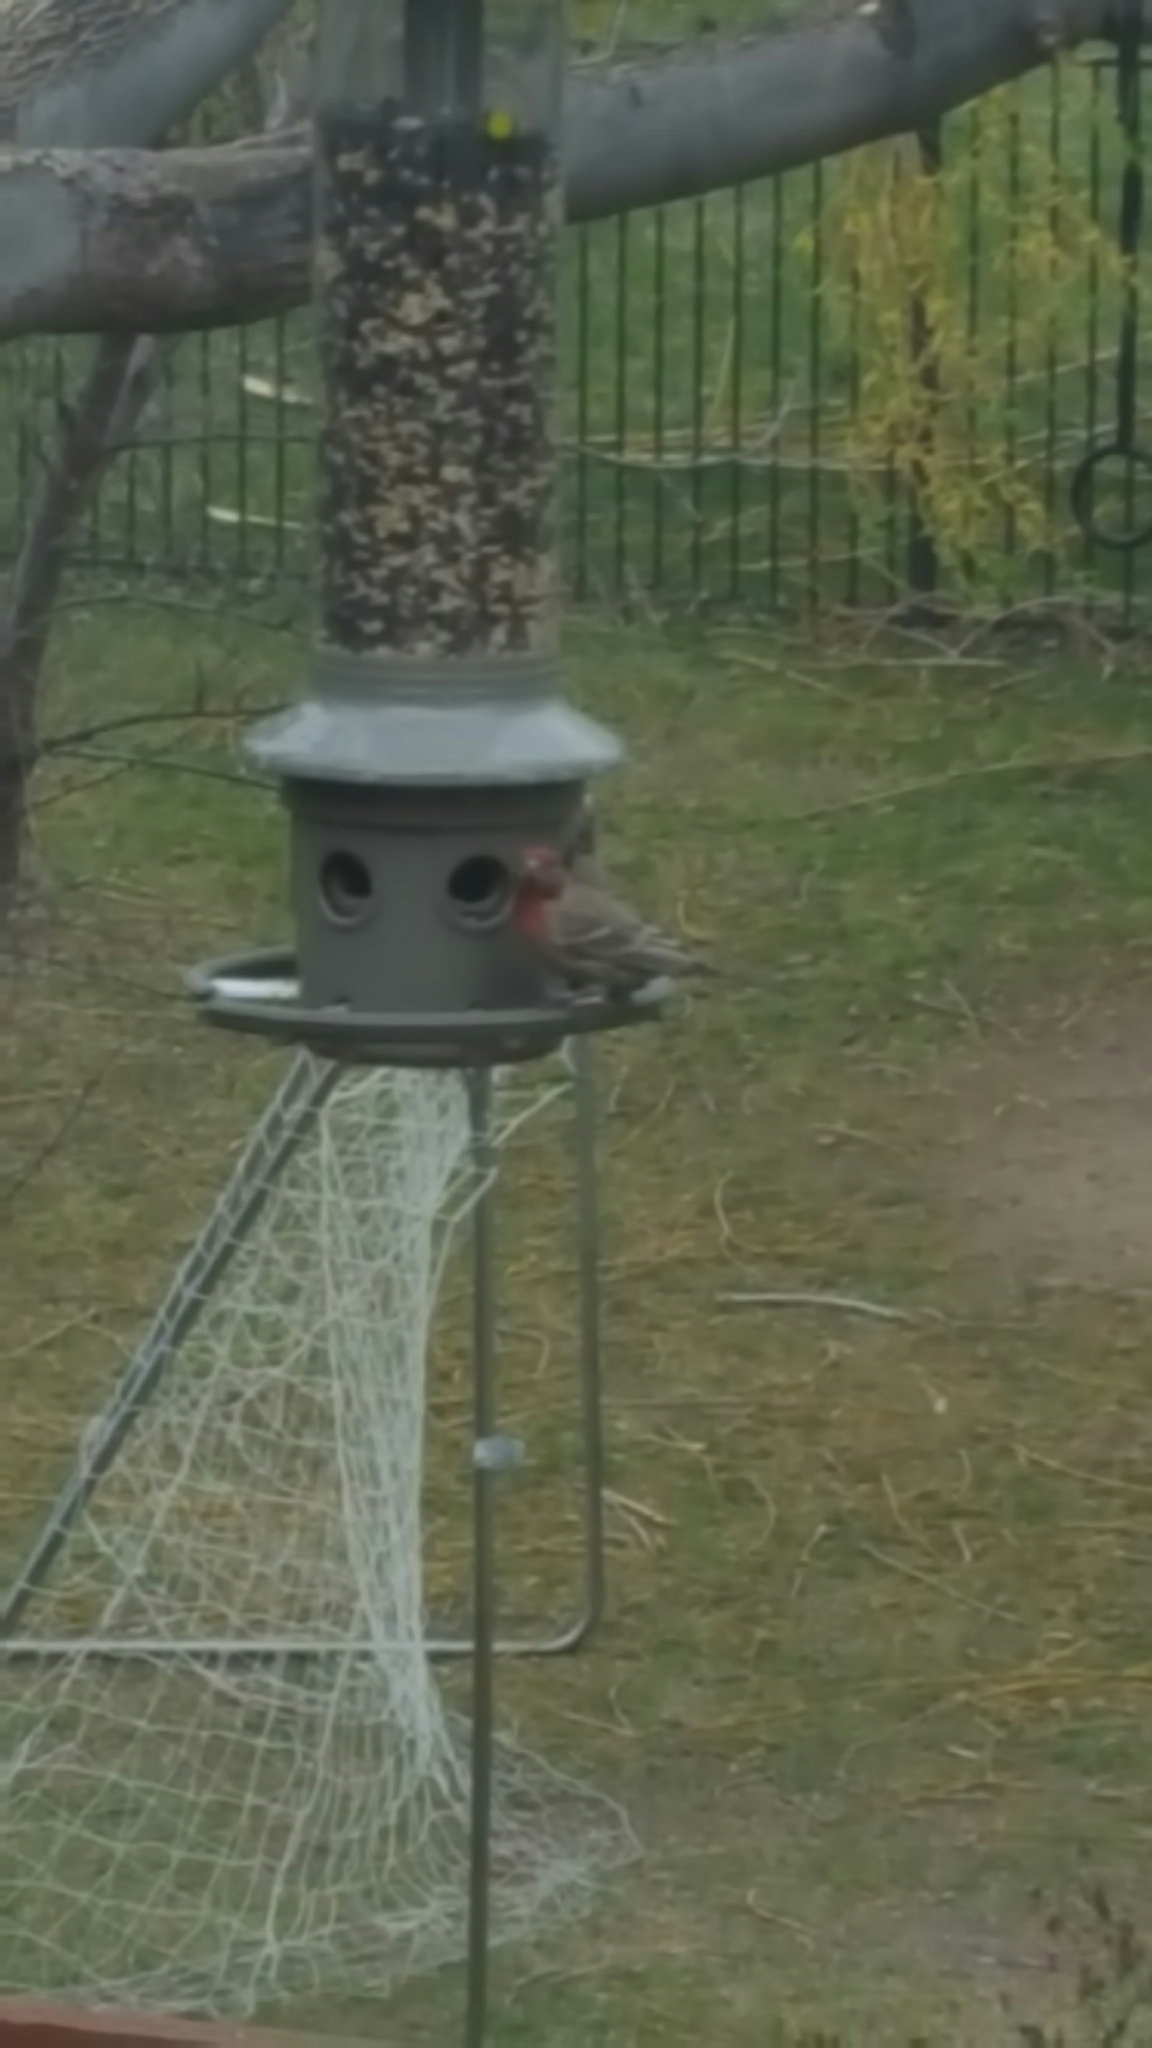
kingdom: Animalia
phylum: Chordata
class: Aves
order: Passeriformes
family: Fringillidae
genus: Haemorhous
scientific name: Haemorhous mexicanus
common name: House finch
